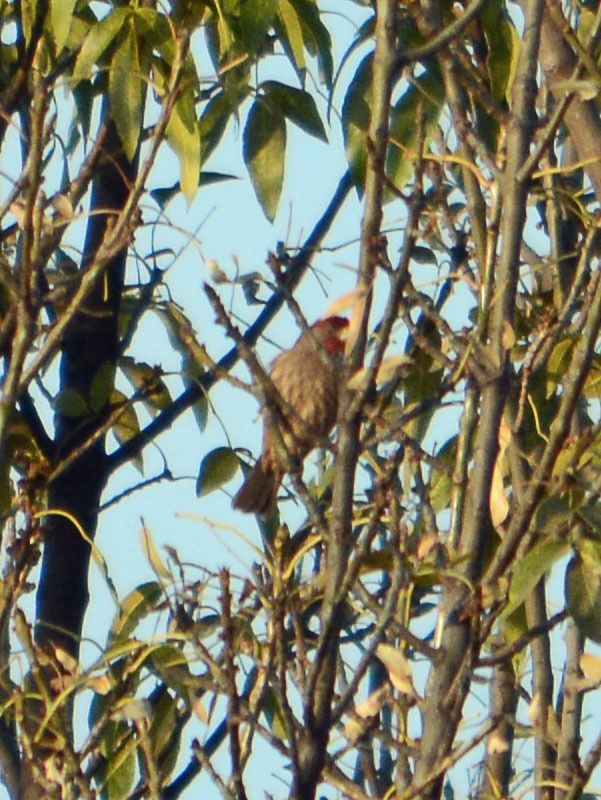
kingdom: Animalia
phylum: Chordata
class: Aves
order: Passeriformes
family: Fringillidae
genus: Haemorhous
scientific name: Haemorhous mexicanus
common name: House finch
